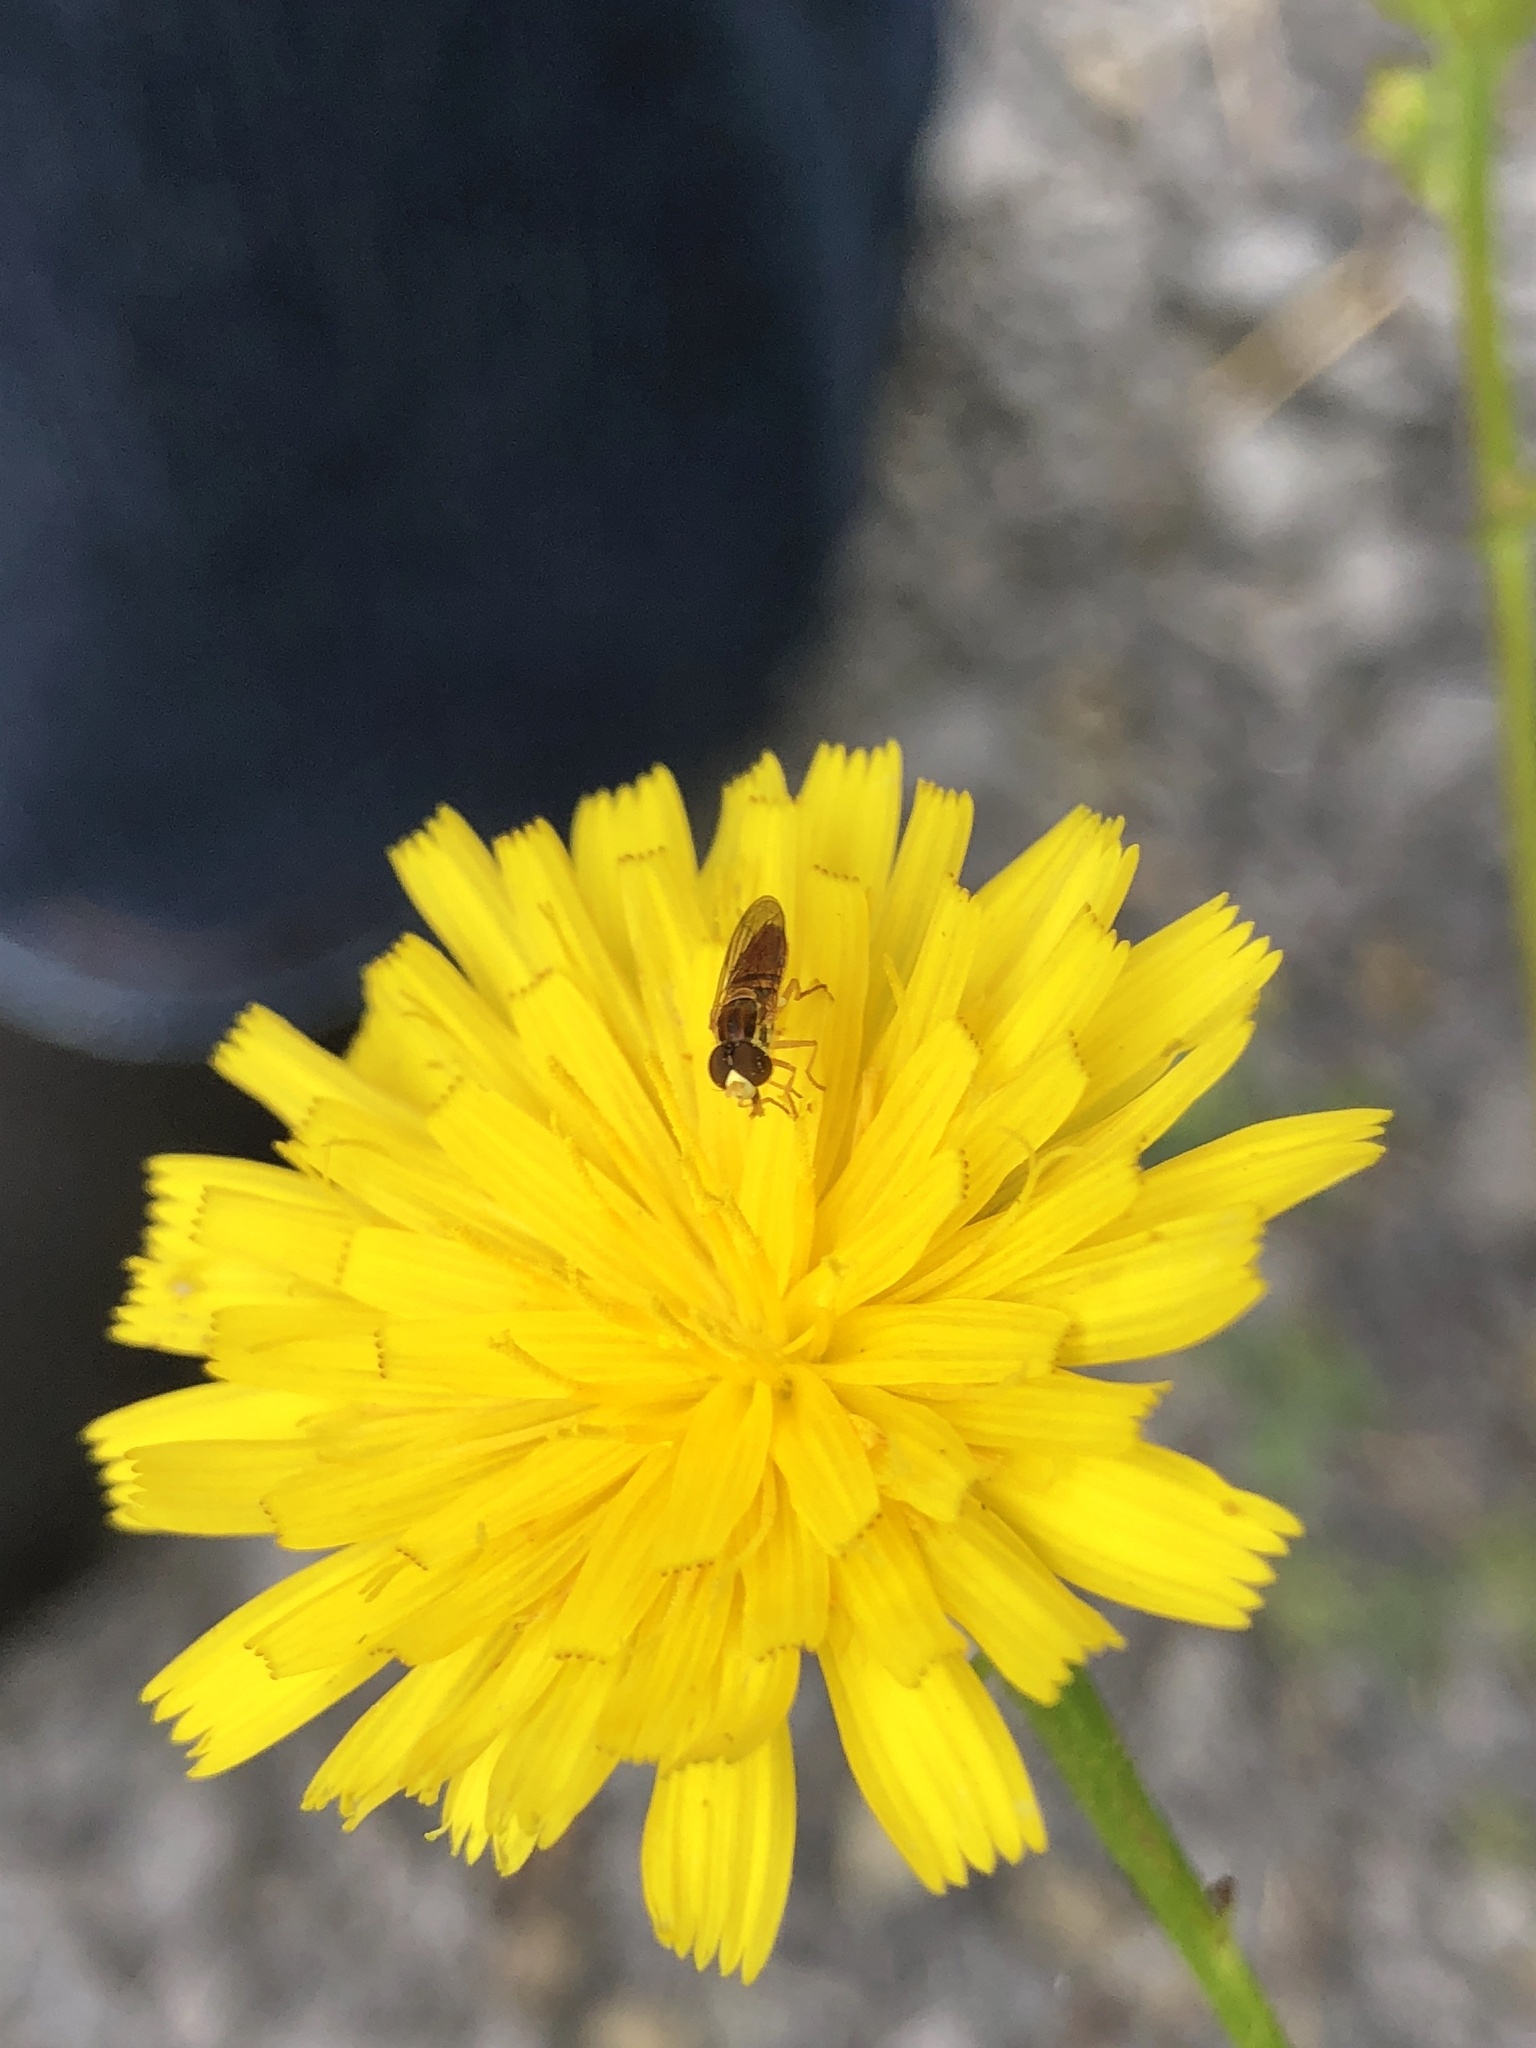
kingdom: Animalia
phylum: Arthropoda
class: Insecta
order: Diptera
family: Syrphidae
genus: Toxomerus
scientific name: Toxomerus marginatus
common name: Syrphid fly
